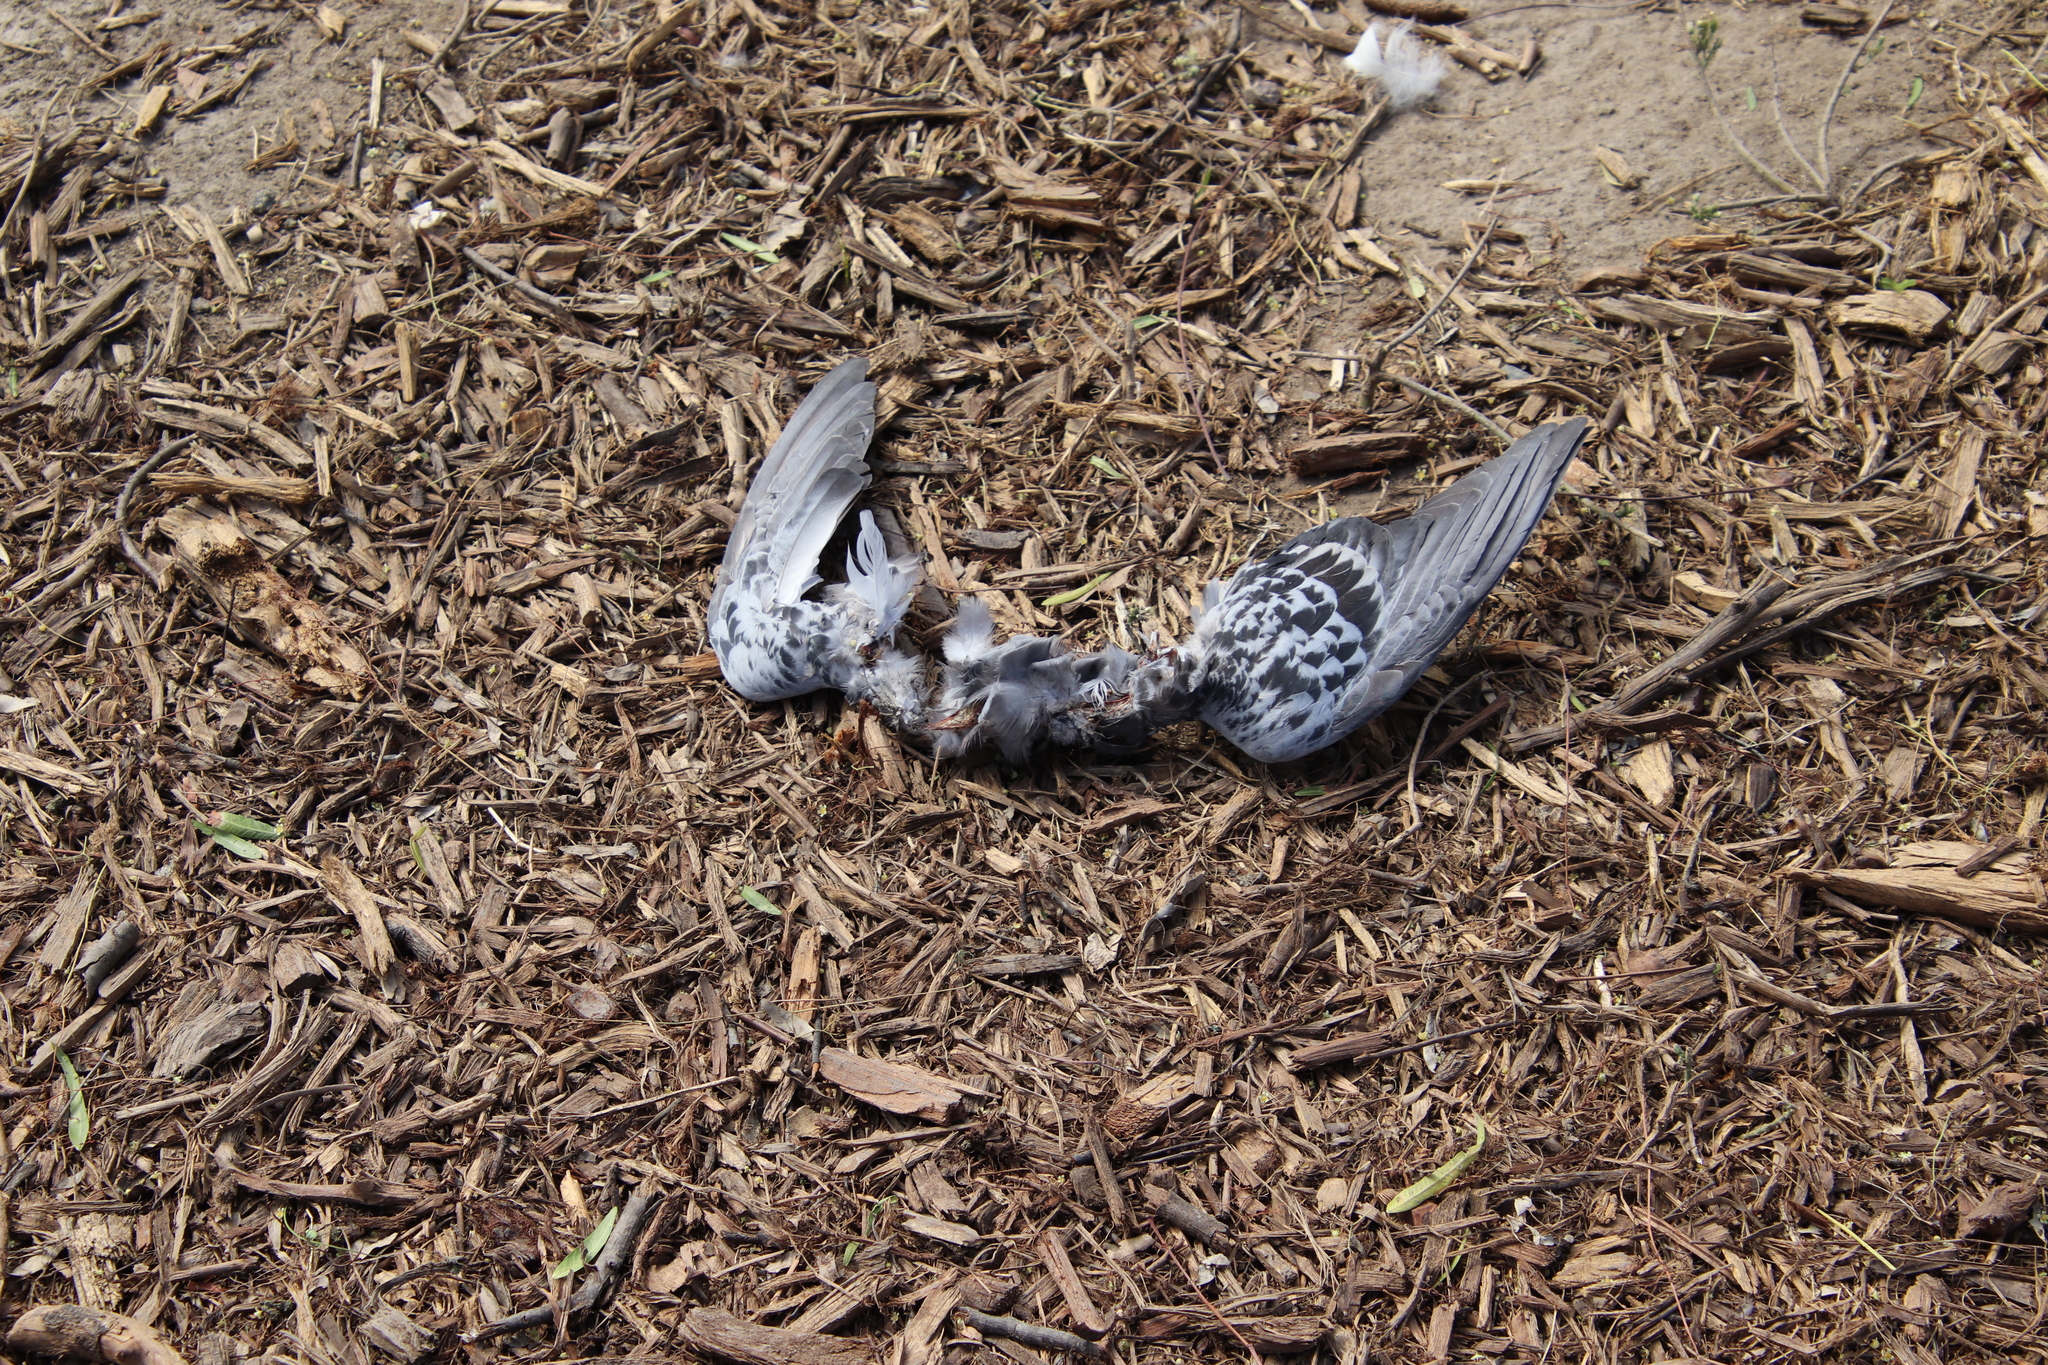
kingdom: Animalia
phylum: Chordata
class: Aves
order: Columbiformes
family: Columbidae
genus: Columba
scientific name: Columba livia
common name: Rock pigeon
